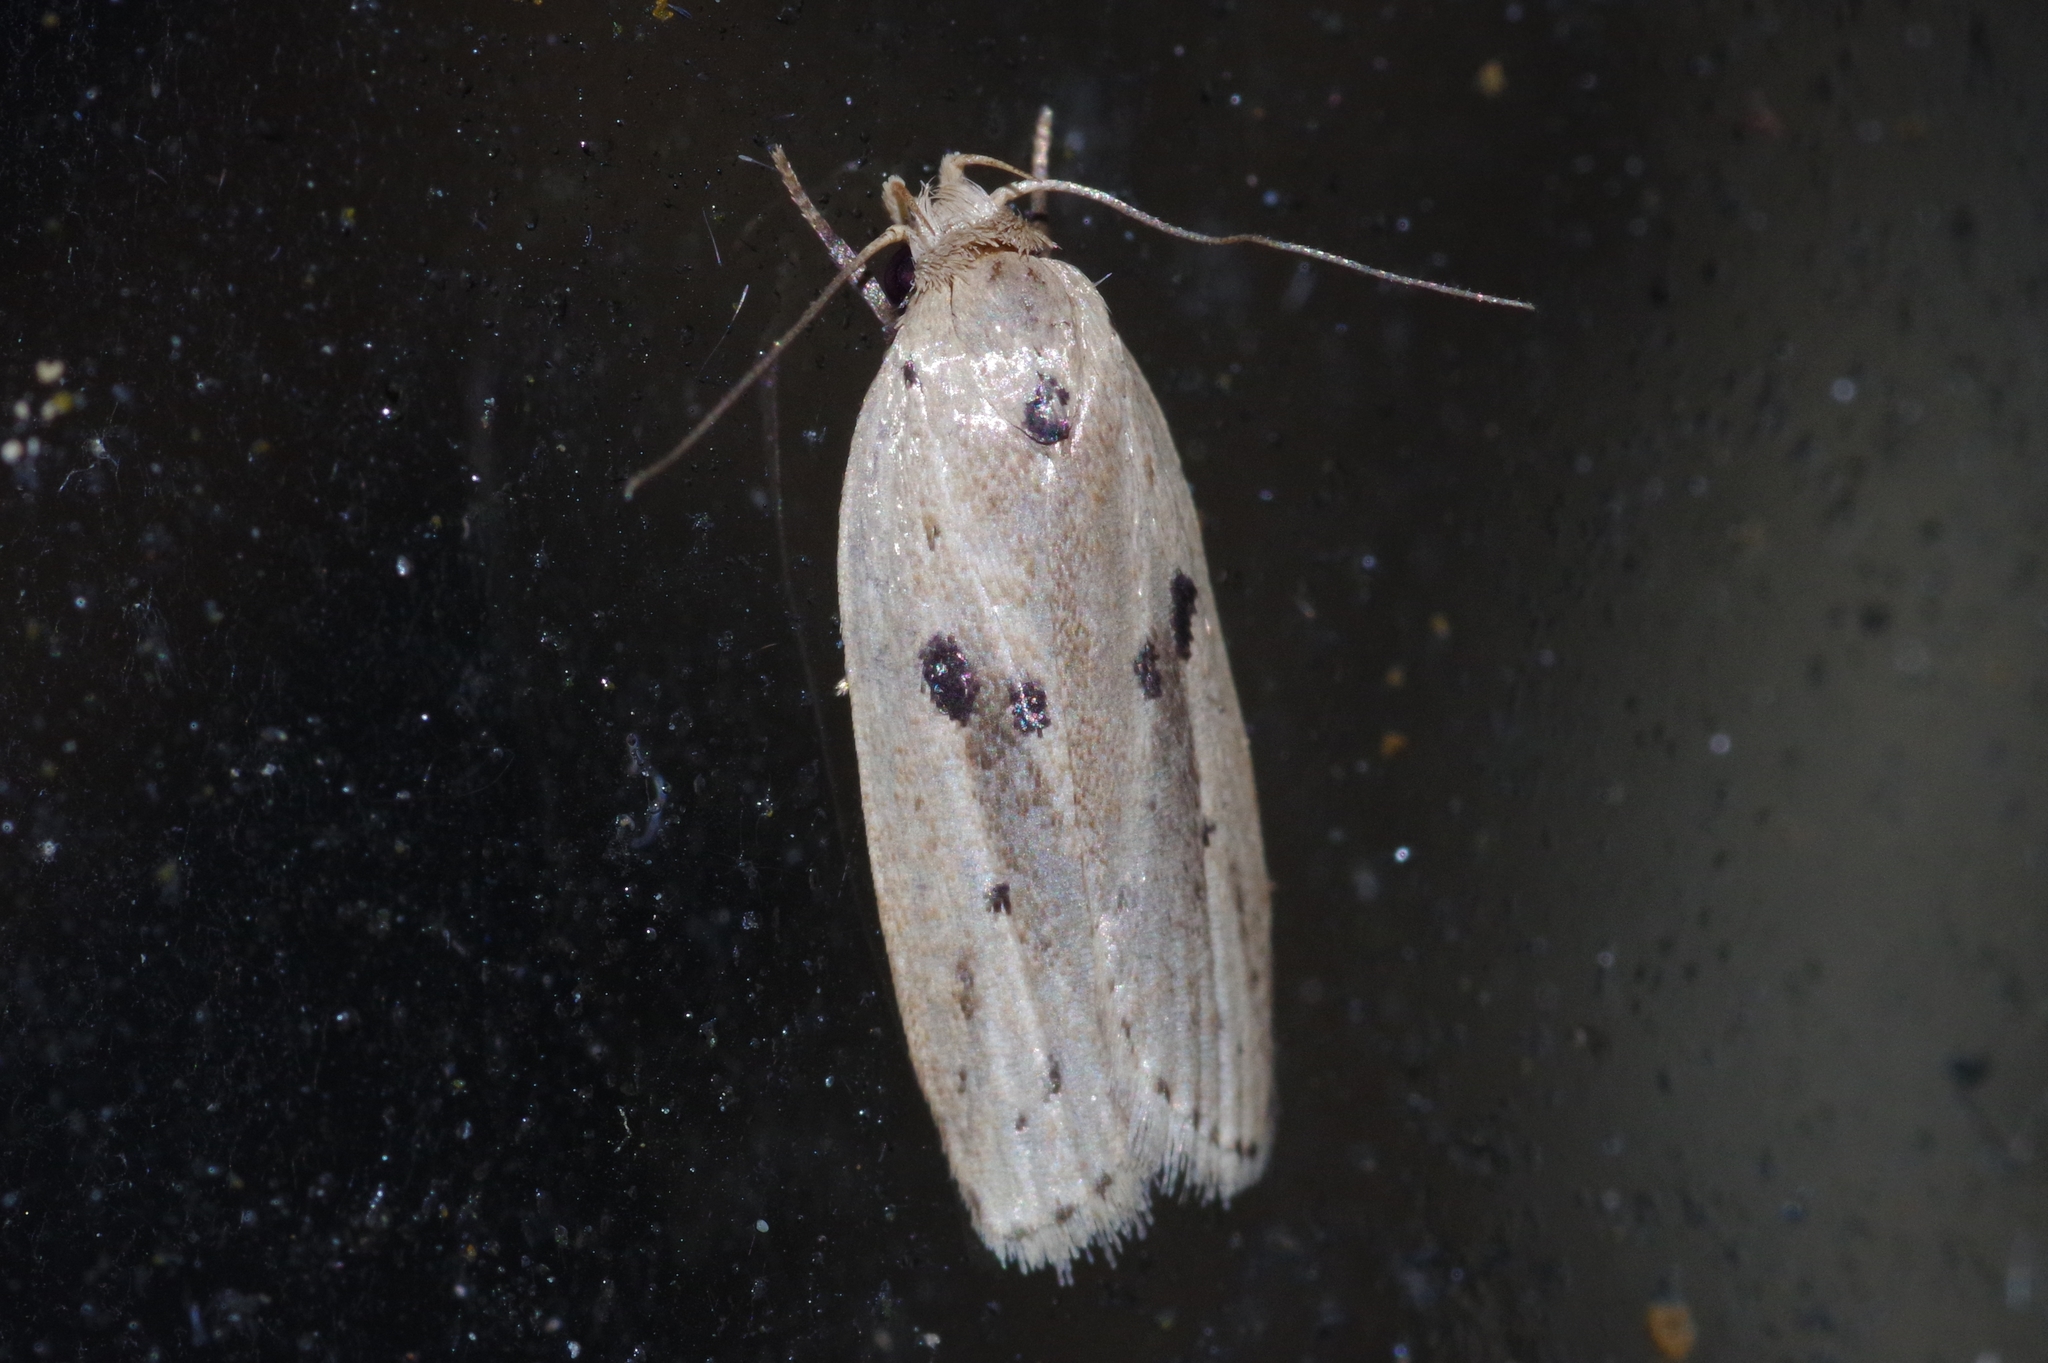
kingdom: Animalia
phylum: Arthropoda
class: Insecta
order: Lepidoptera
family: Peleopodidae
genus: Scythropiodes
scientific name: Scythropiodes issikii
